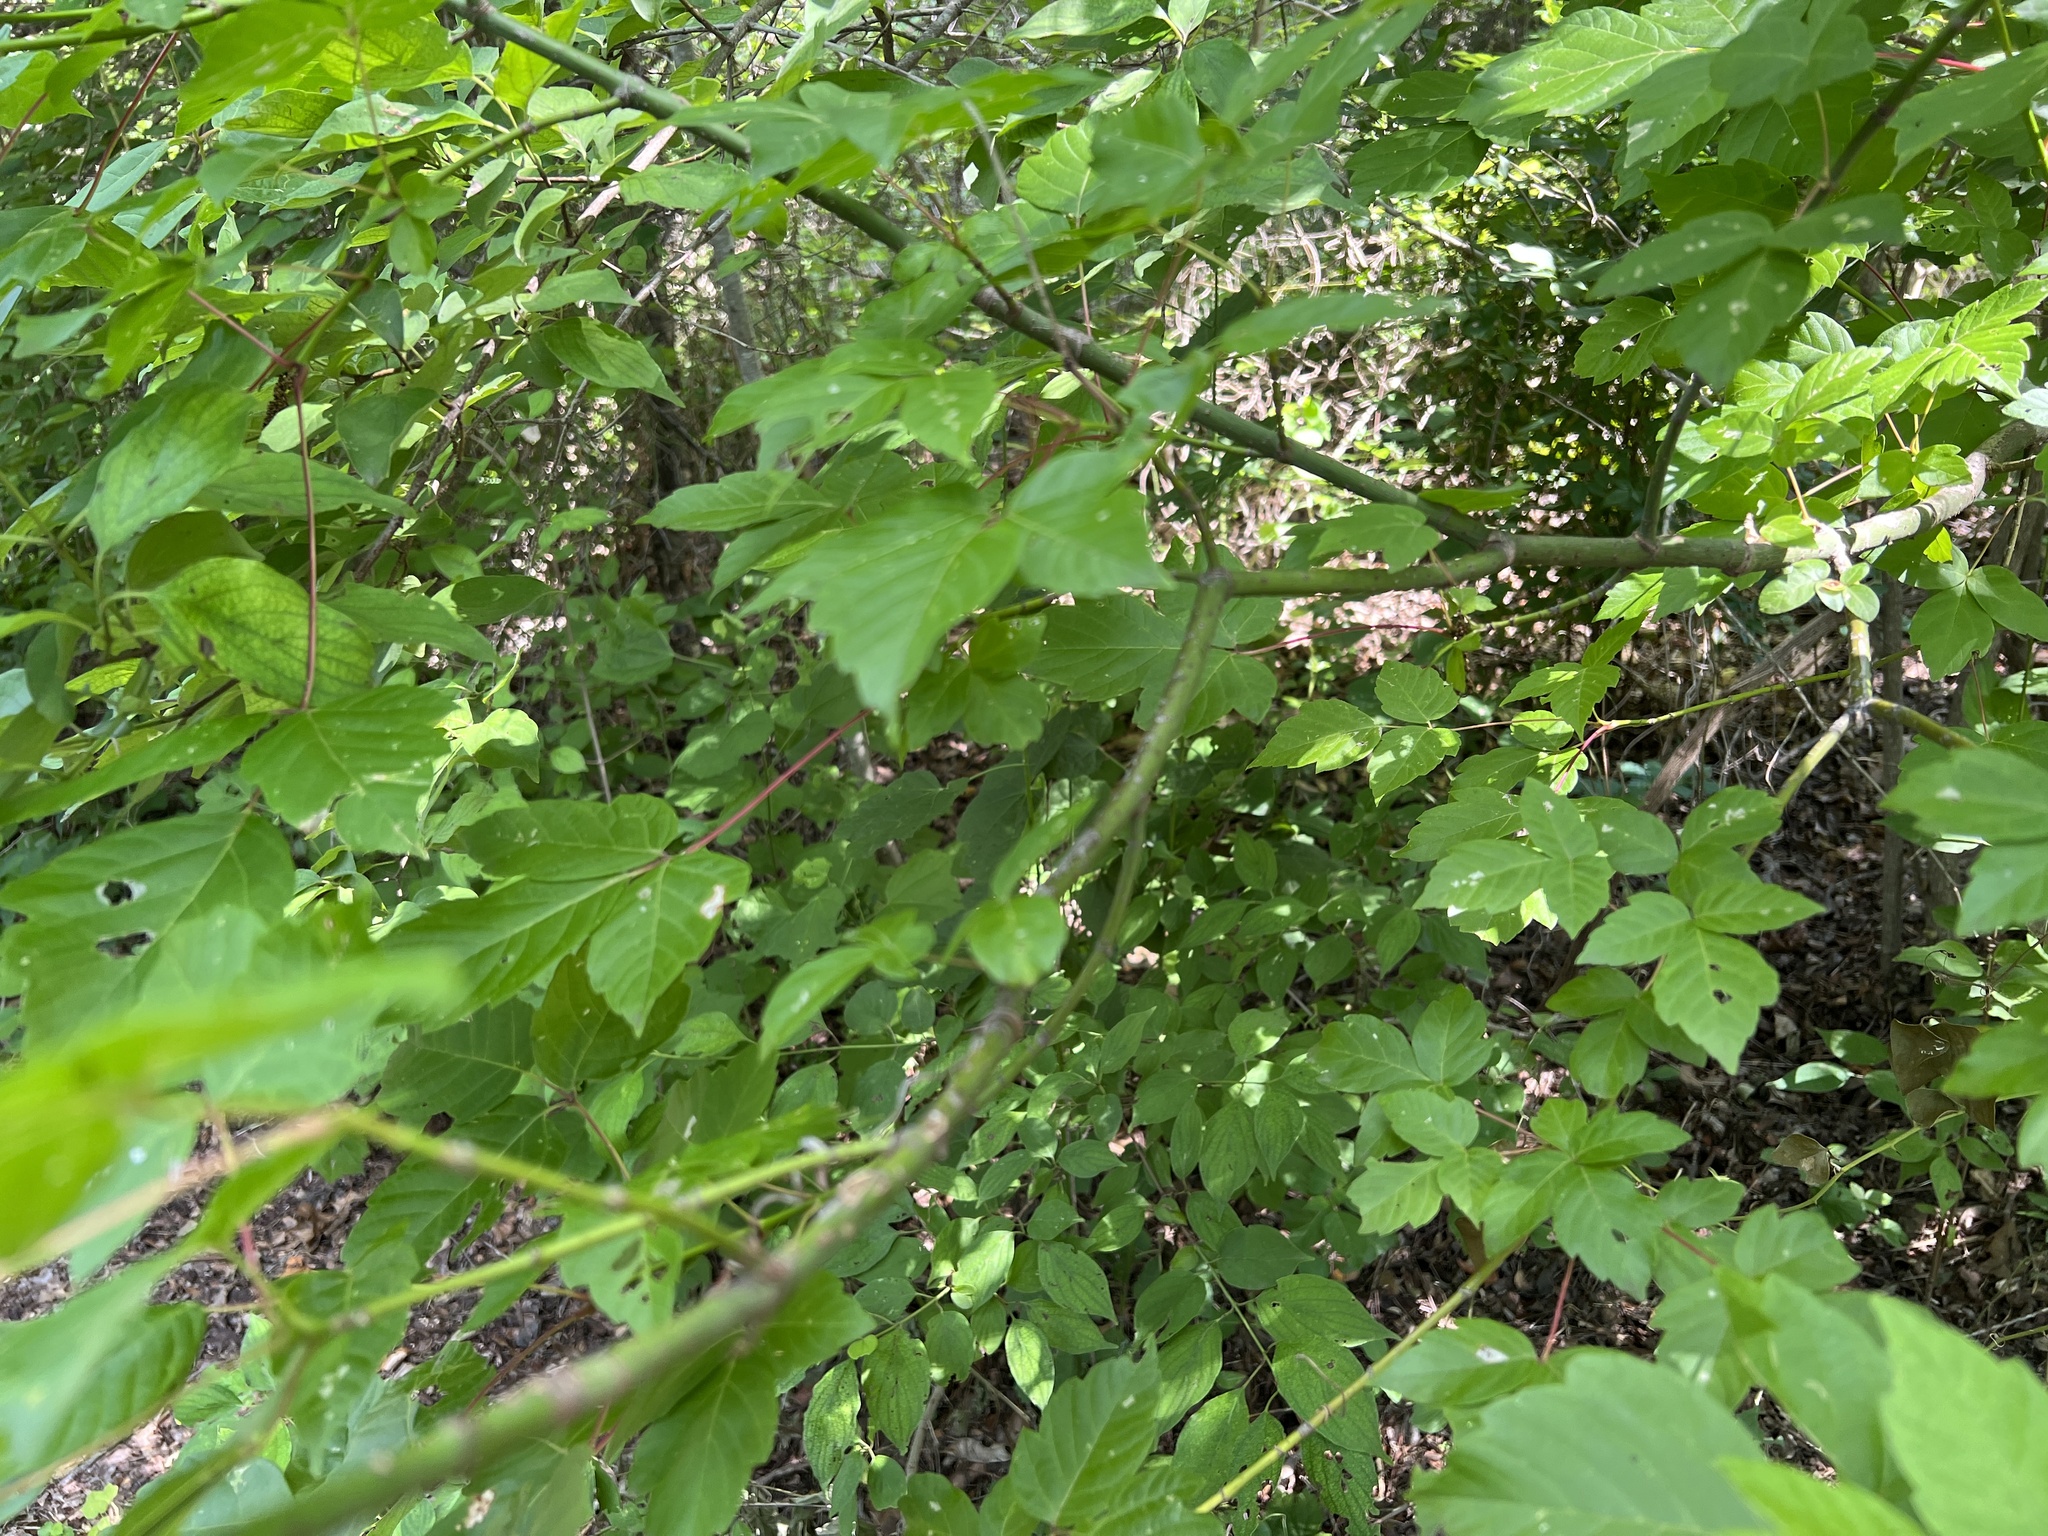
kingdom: Plantae
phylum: Tracheophyta
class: Magnoliopsida
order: Sapindales
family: Sapindaceae
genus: Acer
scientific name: Acer negundo
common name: Ashleaf maple
